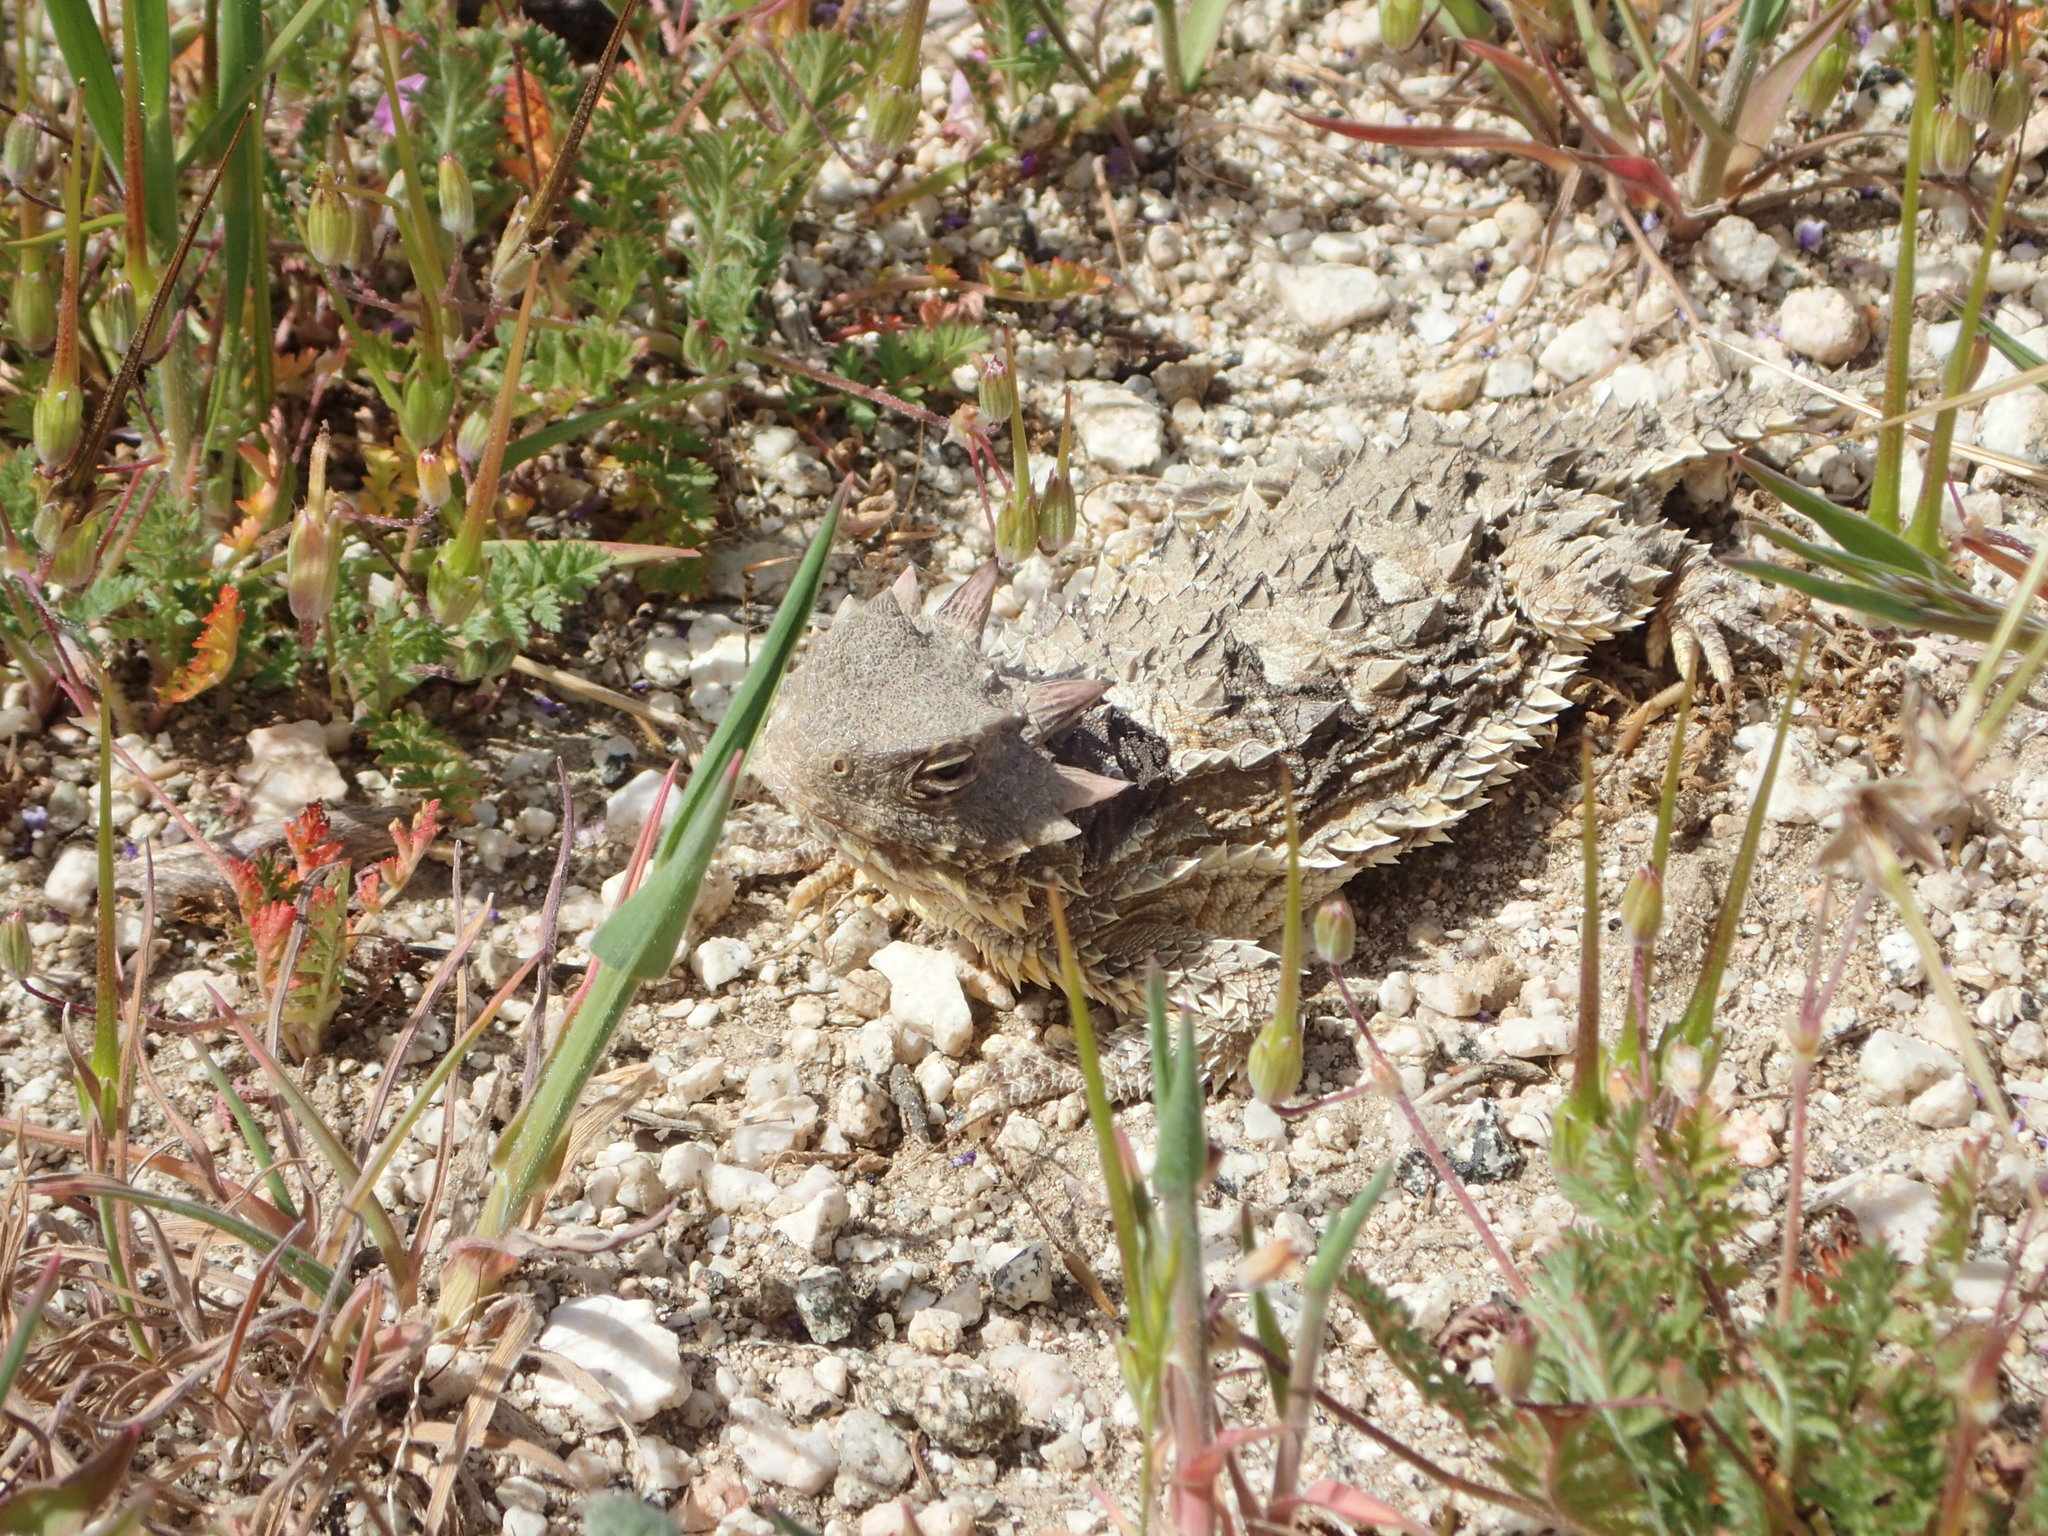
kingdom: Animalia
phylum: Chordata
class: Squamata
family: Phrynosomatidae
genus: Phrynosoma
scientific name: Phrynosoma blainvillii
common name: San diego horned lizard
